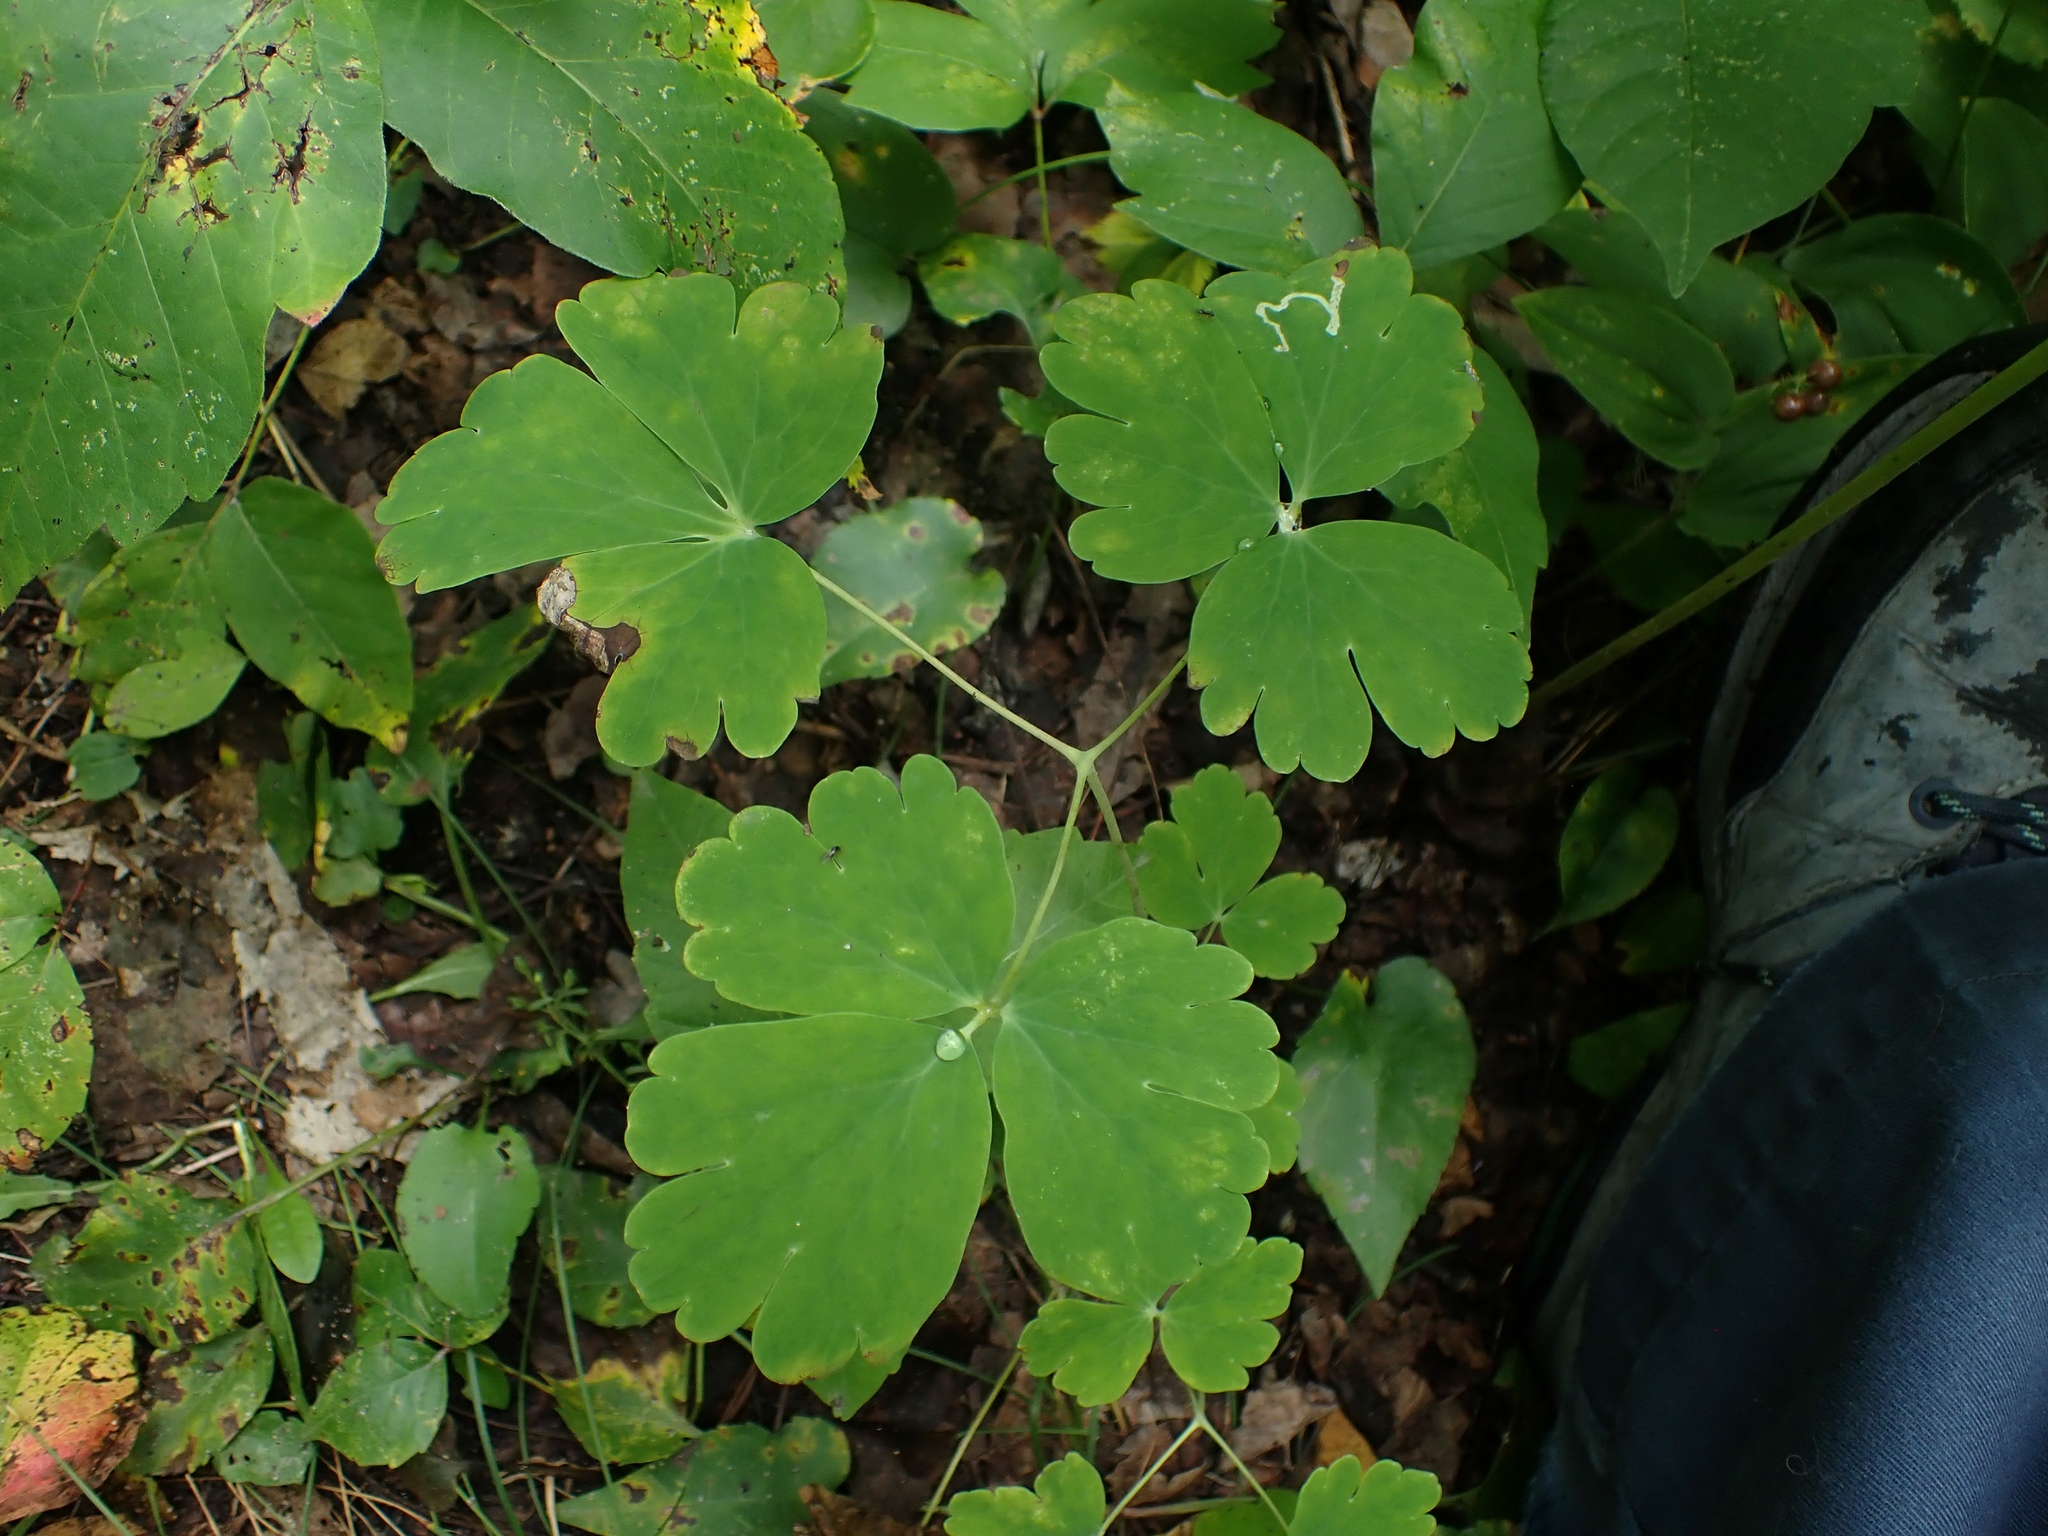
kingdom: Plantae
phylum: Tracheophyta
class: Magnoliopsida
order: Ranunculales
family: Ranunculaceae
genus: Aquilegia
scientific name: Aquilegia canadensis
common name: American columbine
